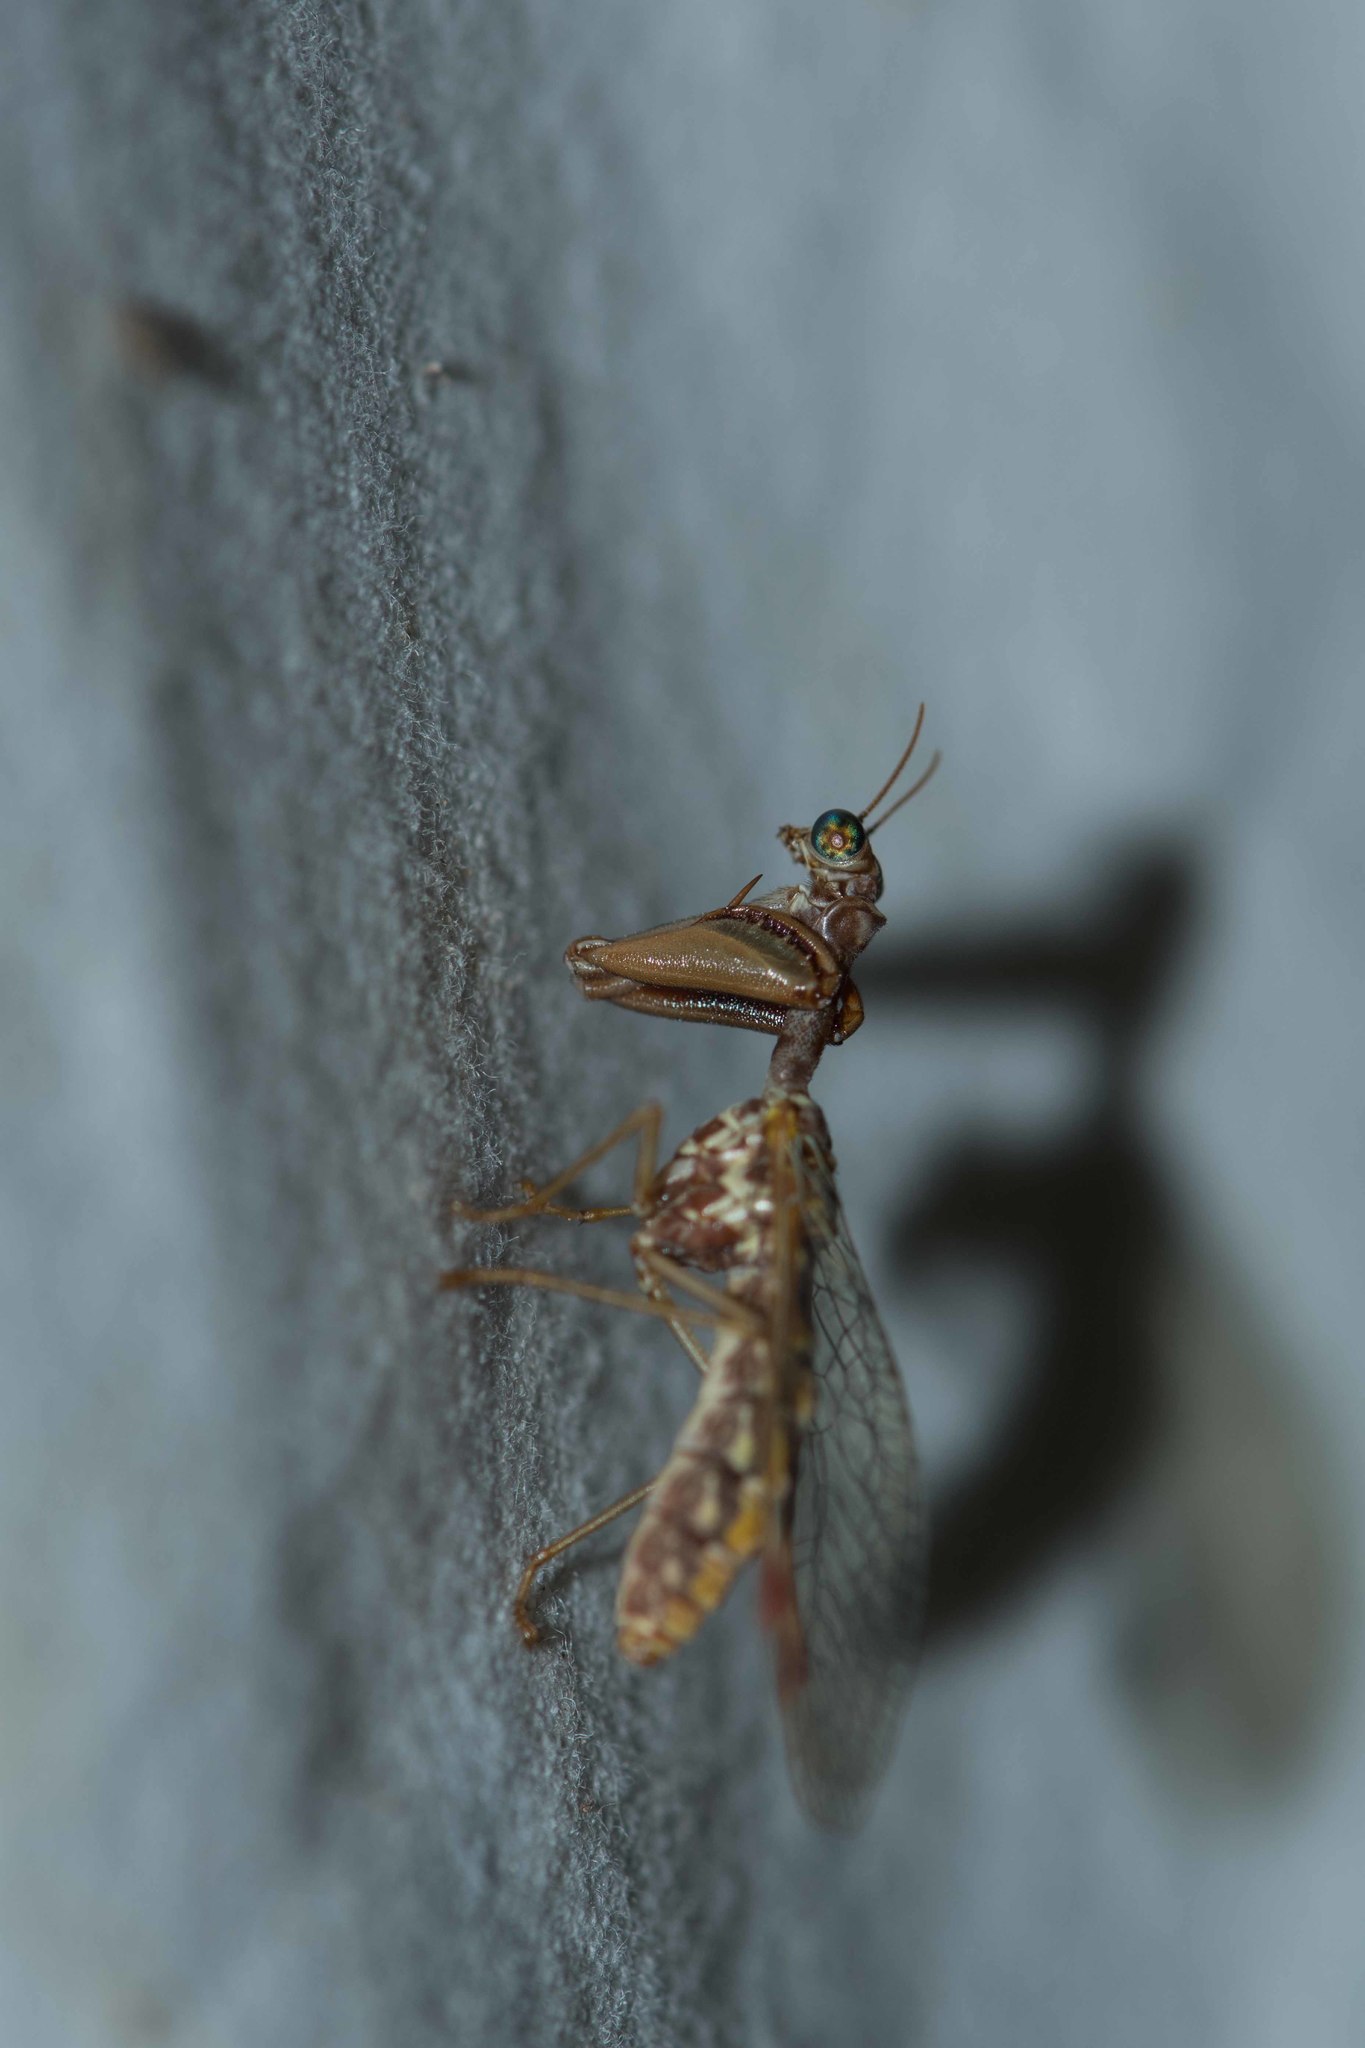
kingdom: Animalia
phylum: Arthropoda
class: Insecta
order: Neuroptera
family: Mantispidae
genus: Mantispa
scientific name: Mantispa styriaca
